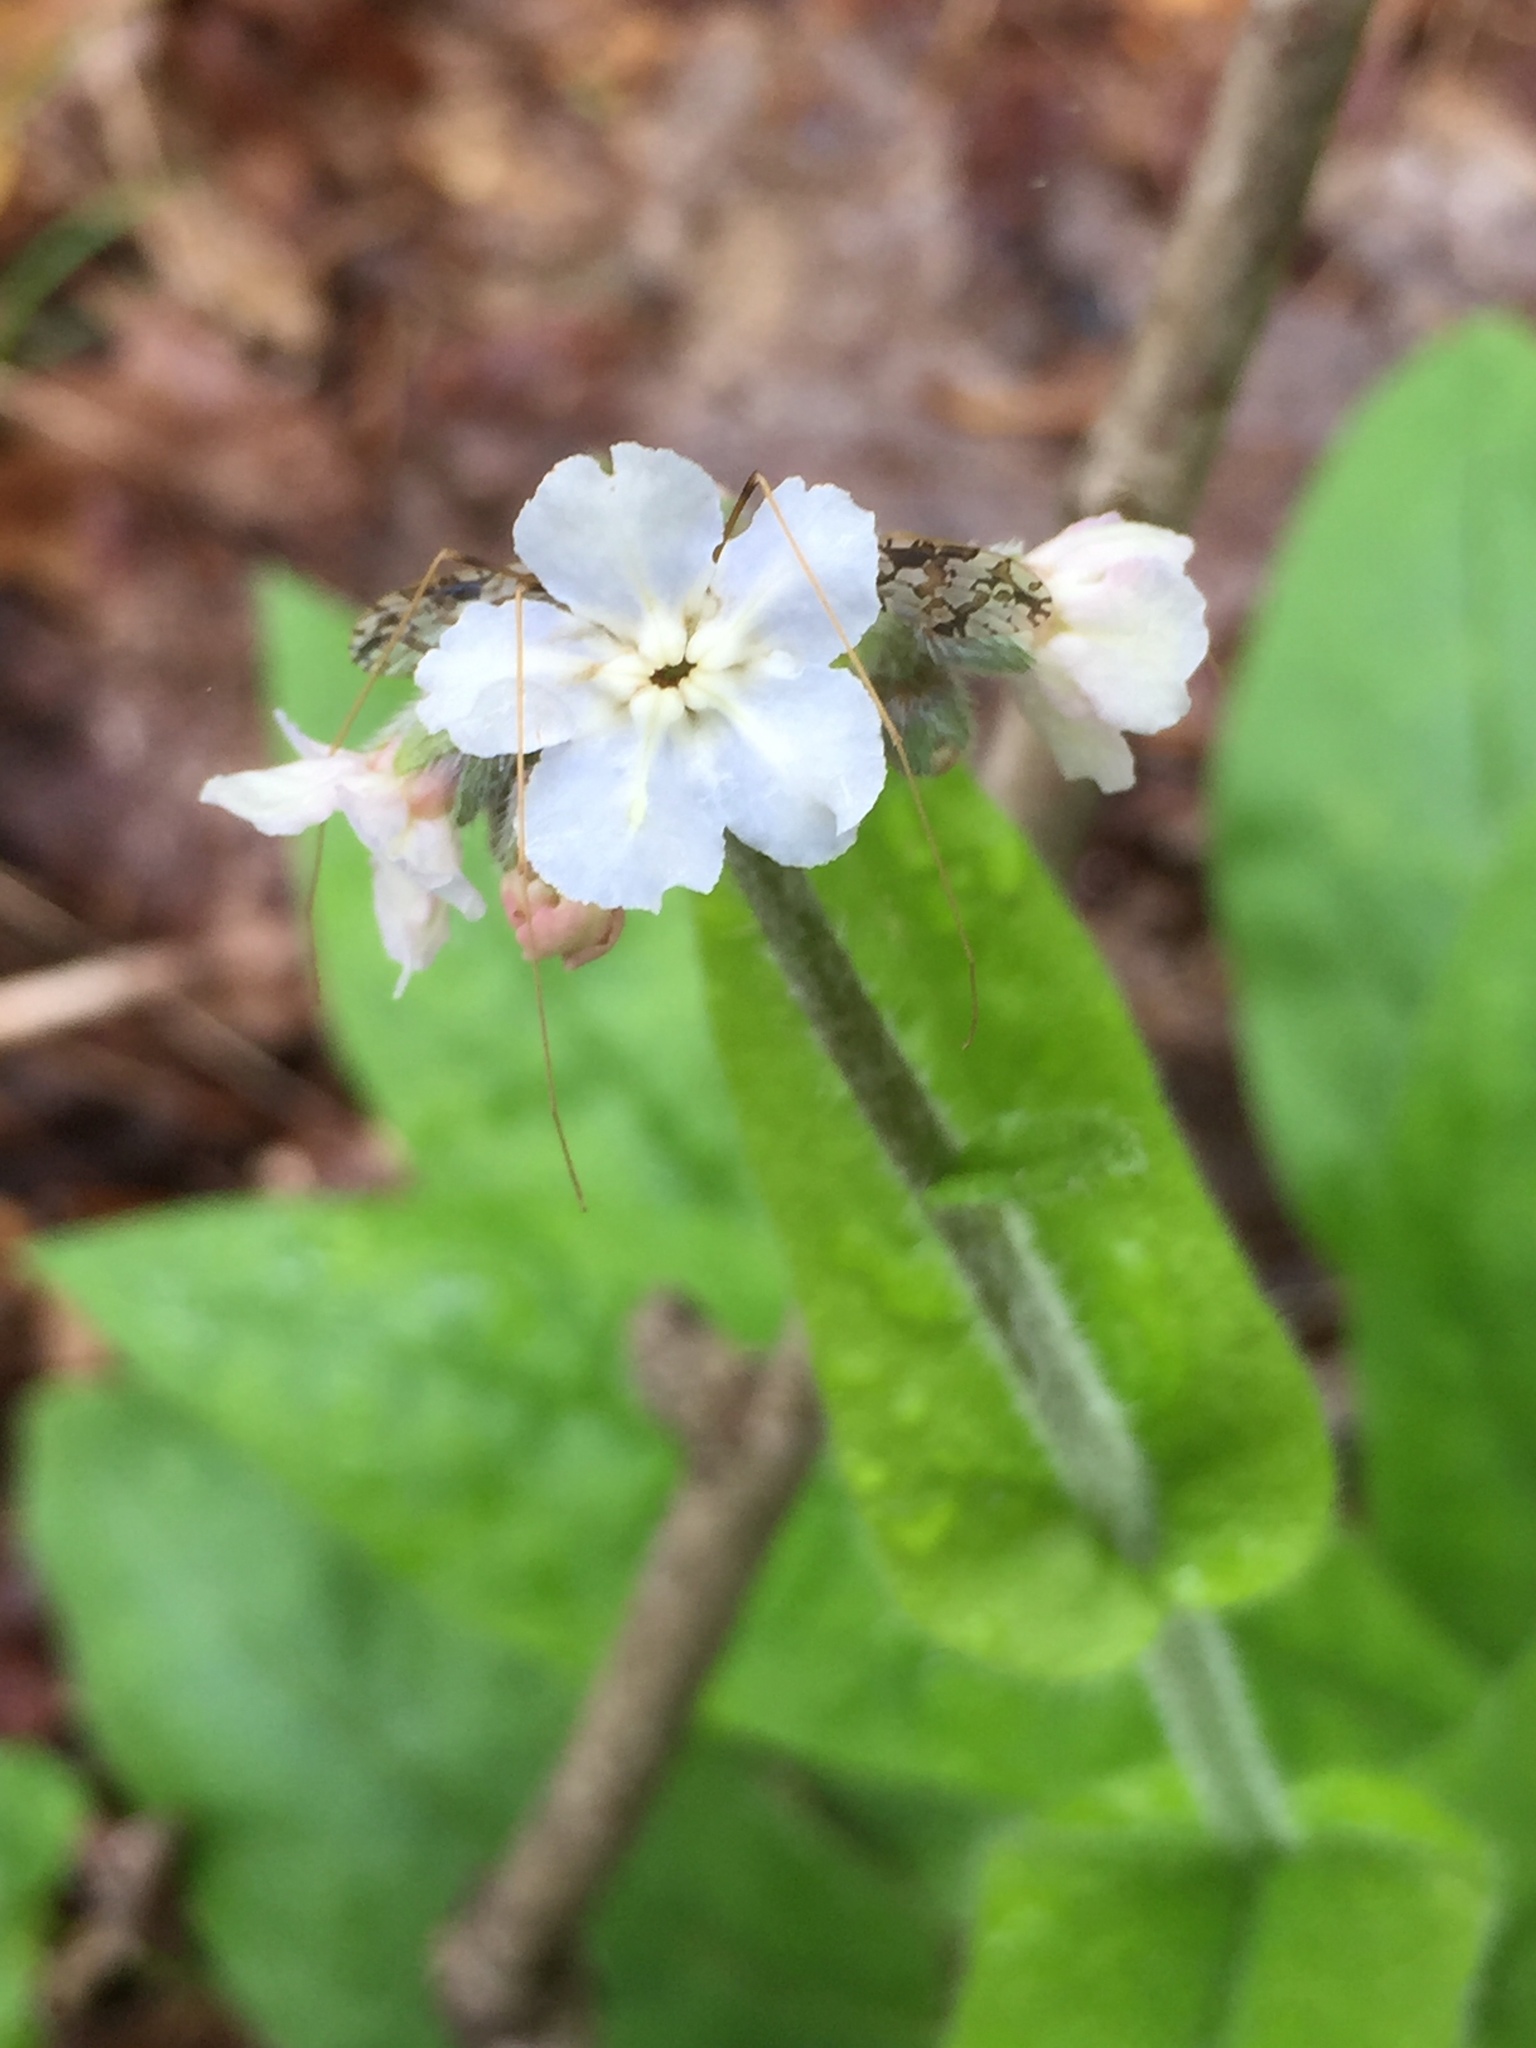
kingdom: Plantae
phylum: Tracheophyta
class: Magnoliopsida
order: Boraginales
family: Boraginaceae
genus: Andersonglossum
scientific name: Andersonglossum virginianum
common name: Wild comfrey
